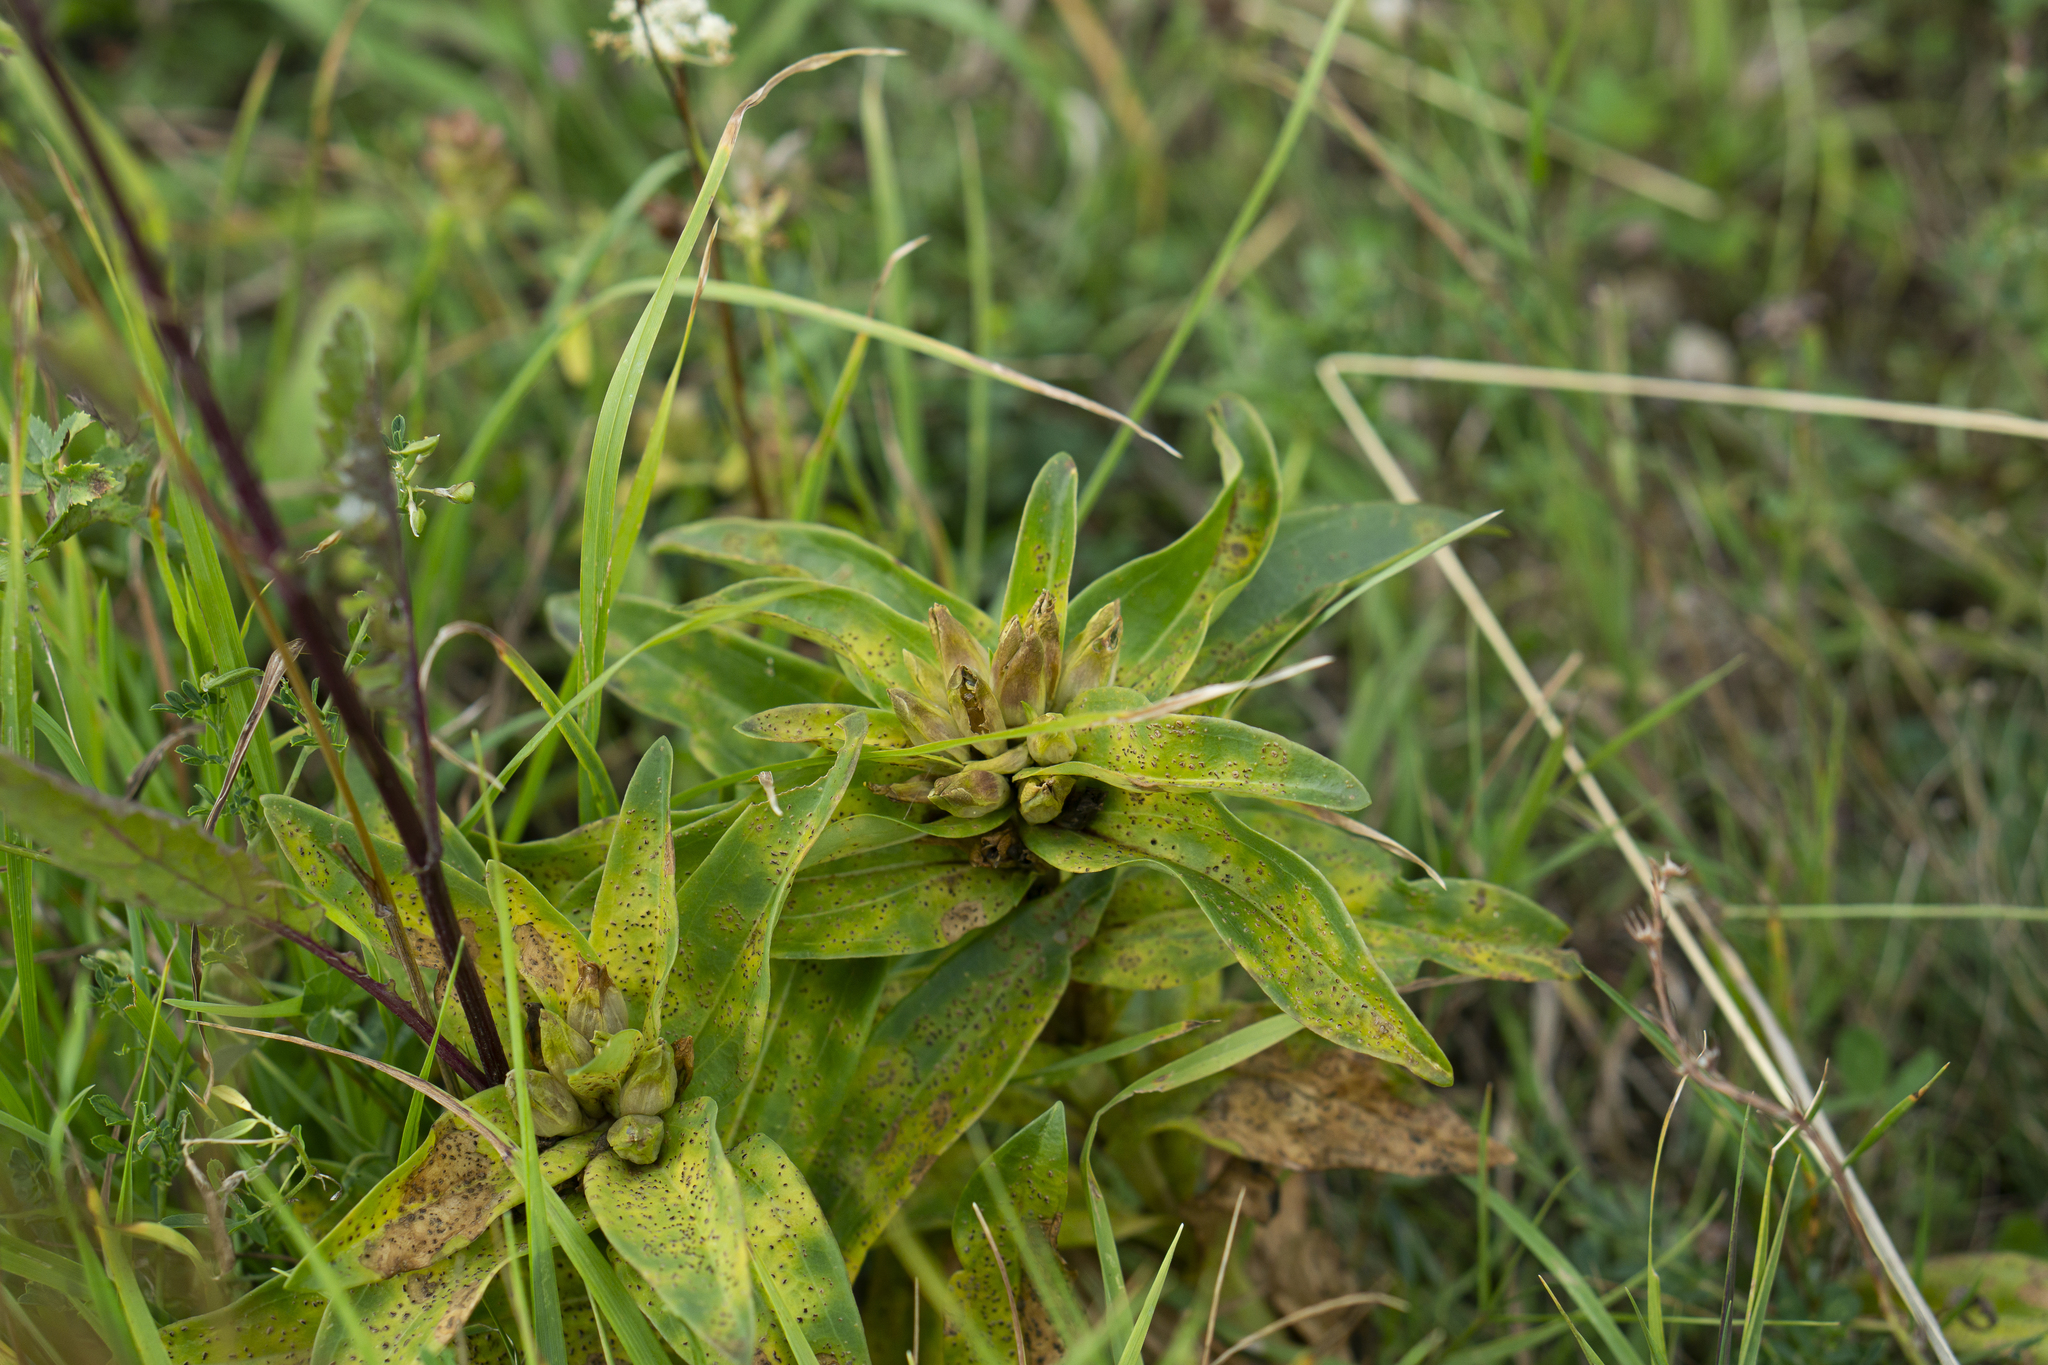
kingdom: Plantae
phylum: Tracheophyta
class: Magnoliopsida
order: Gentianales
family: Gentianaceae
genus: Gentiana
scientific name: Gentiana cruciata
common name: Cross gentian
